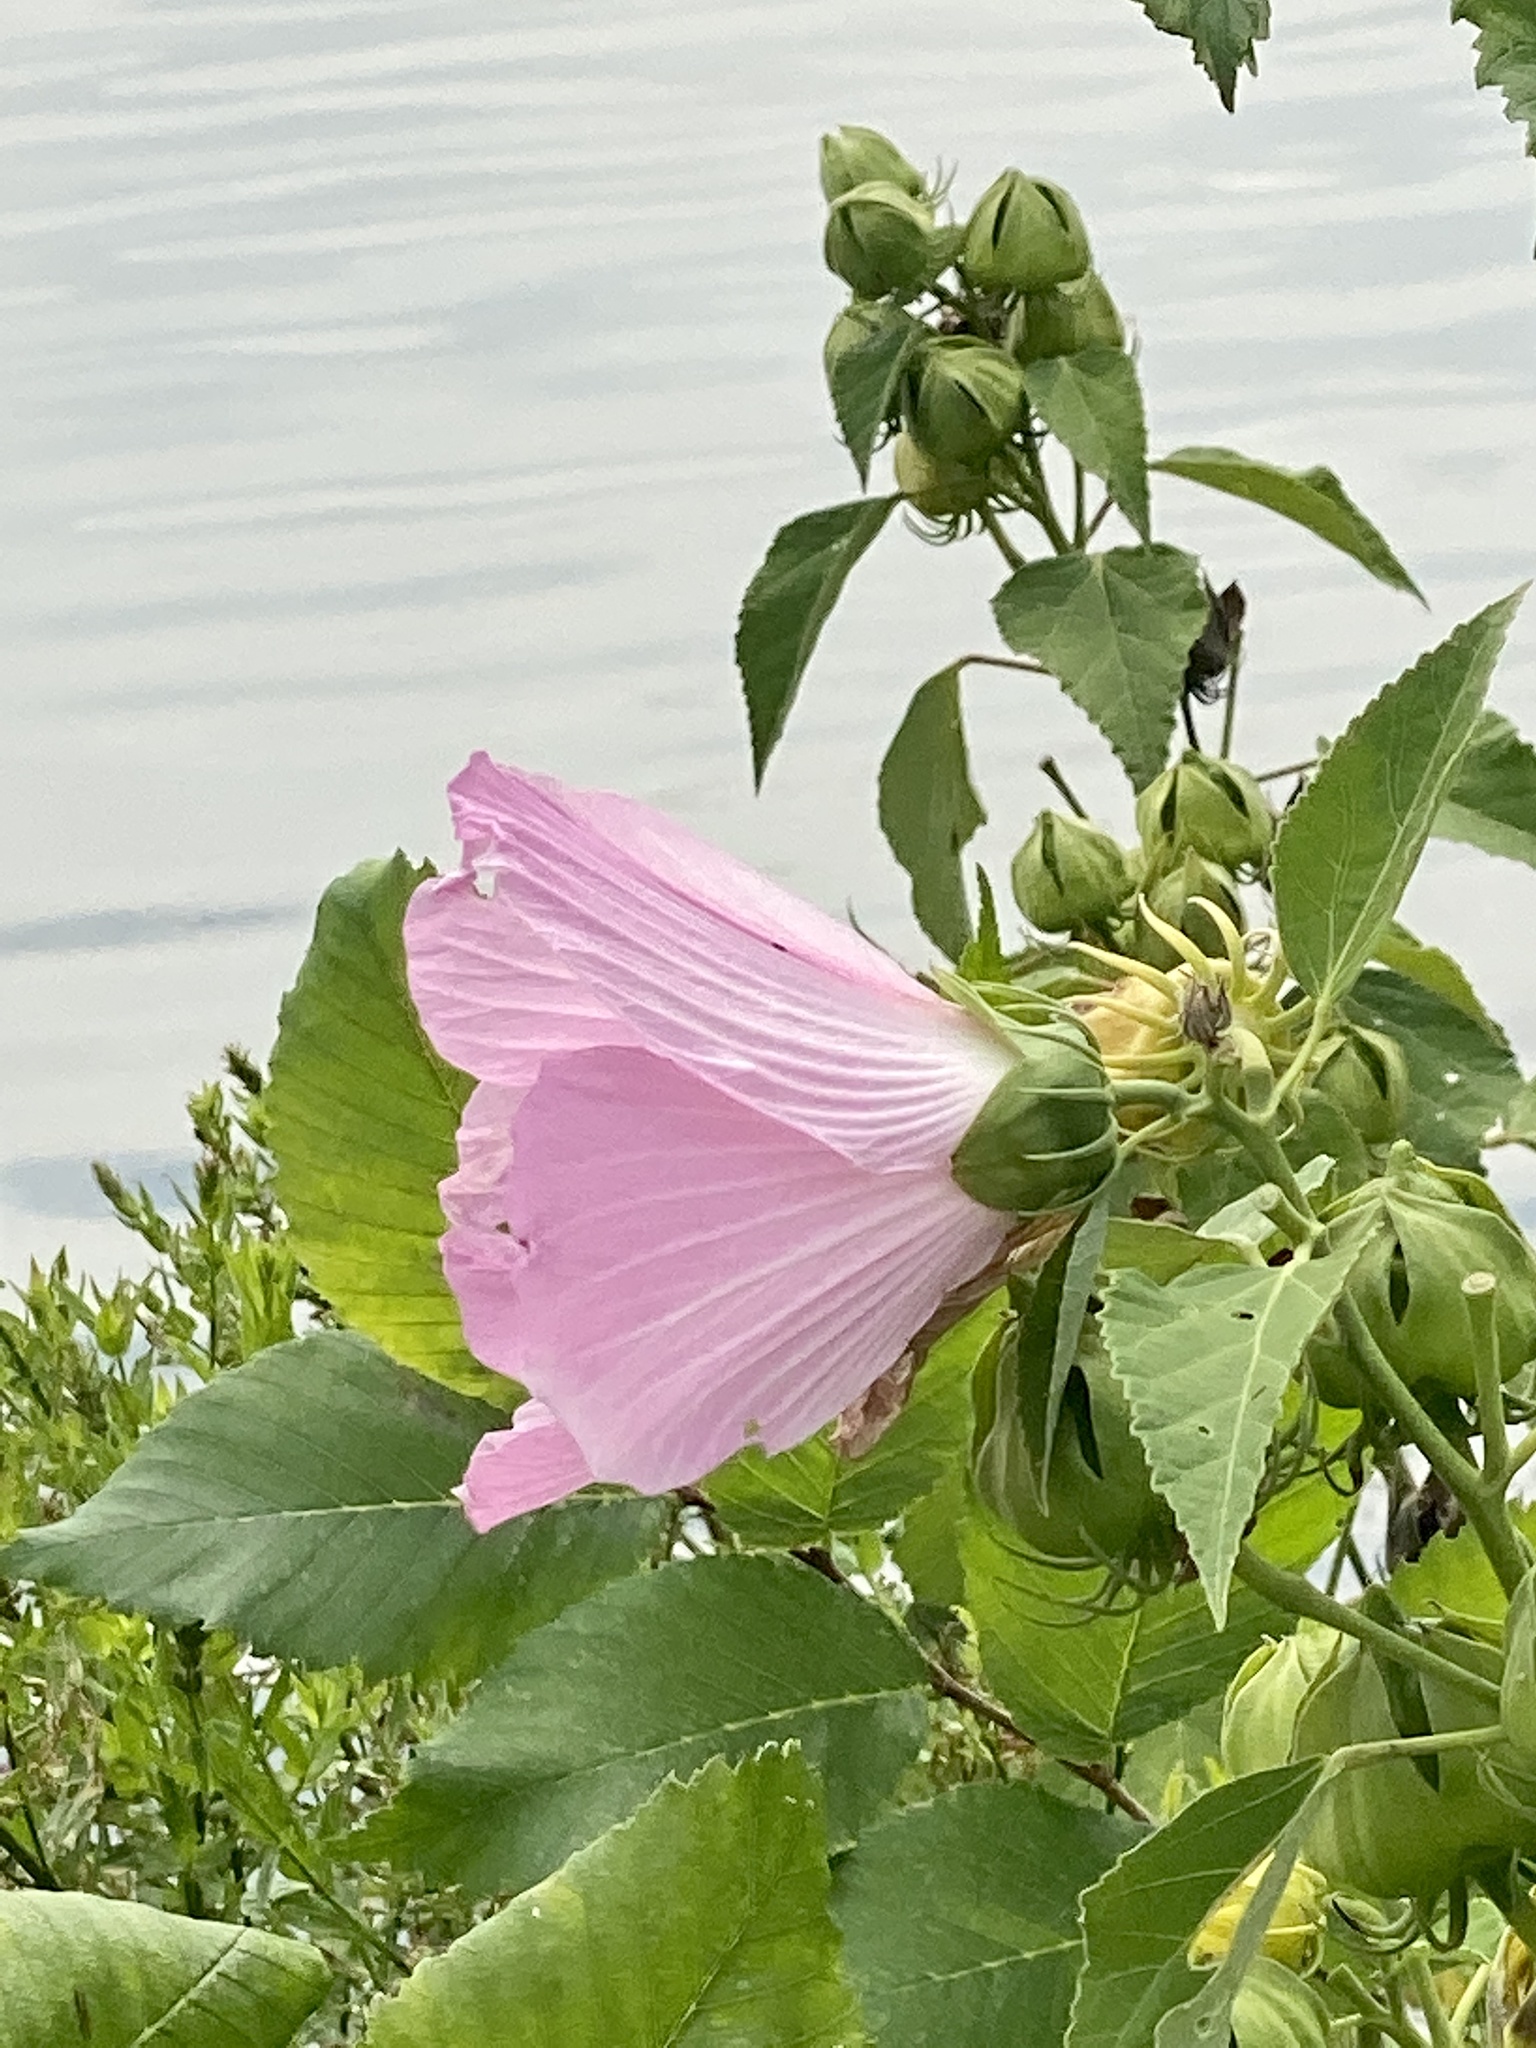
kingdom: Plantae
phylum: Tracheophyta
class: Magnoliopsida
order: Malvales
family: Malvaceae
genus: Hibiscus
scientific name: Hibiscus moscheutos
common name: Common rose-mallow
